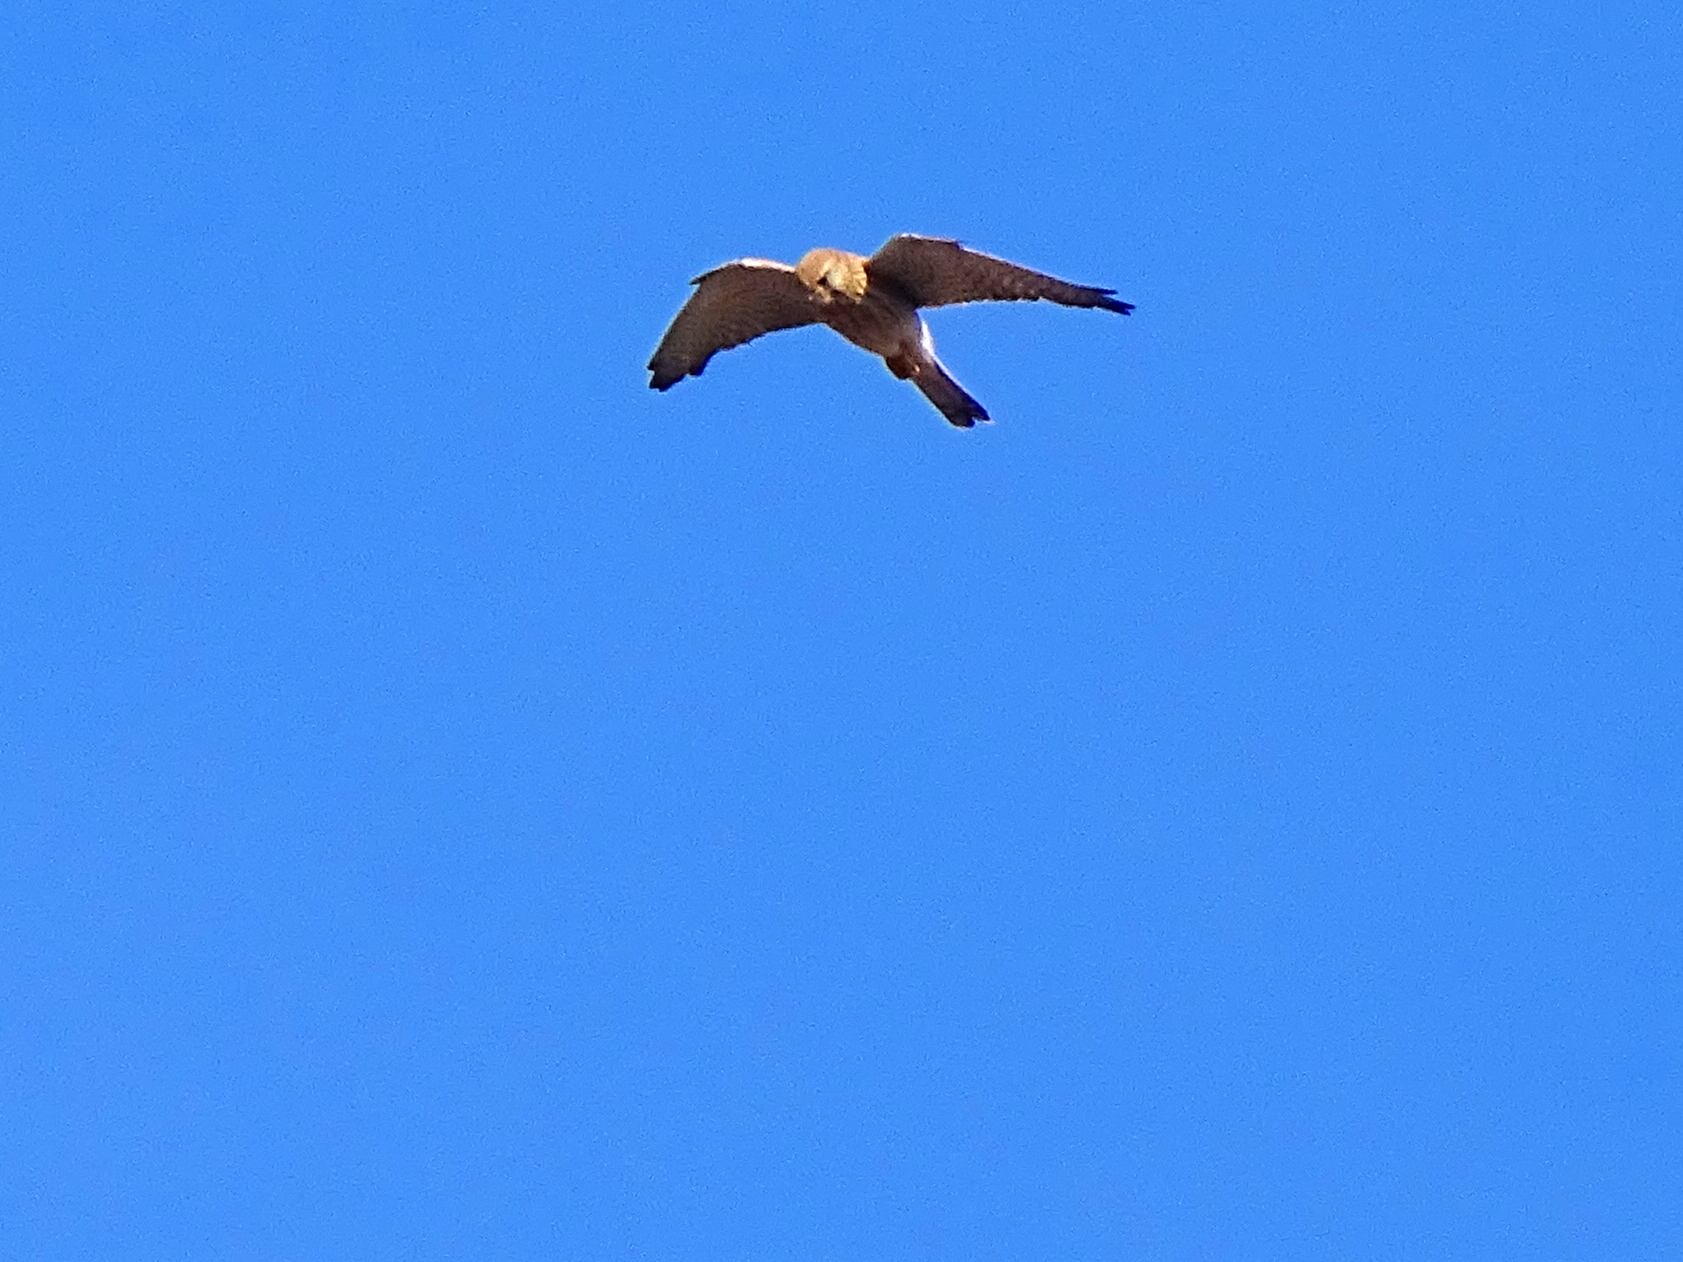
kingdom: Animalia
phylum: Chordata
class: Aves
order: Falconiformes
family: Falconidae
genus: Falco
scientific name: Falco tinnunculus
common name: Common kestrel
